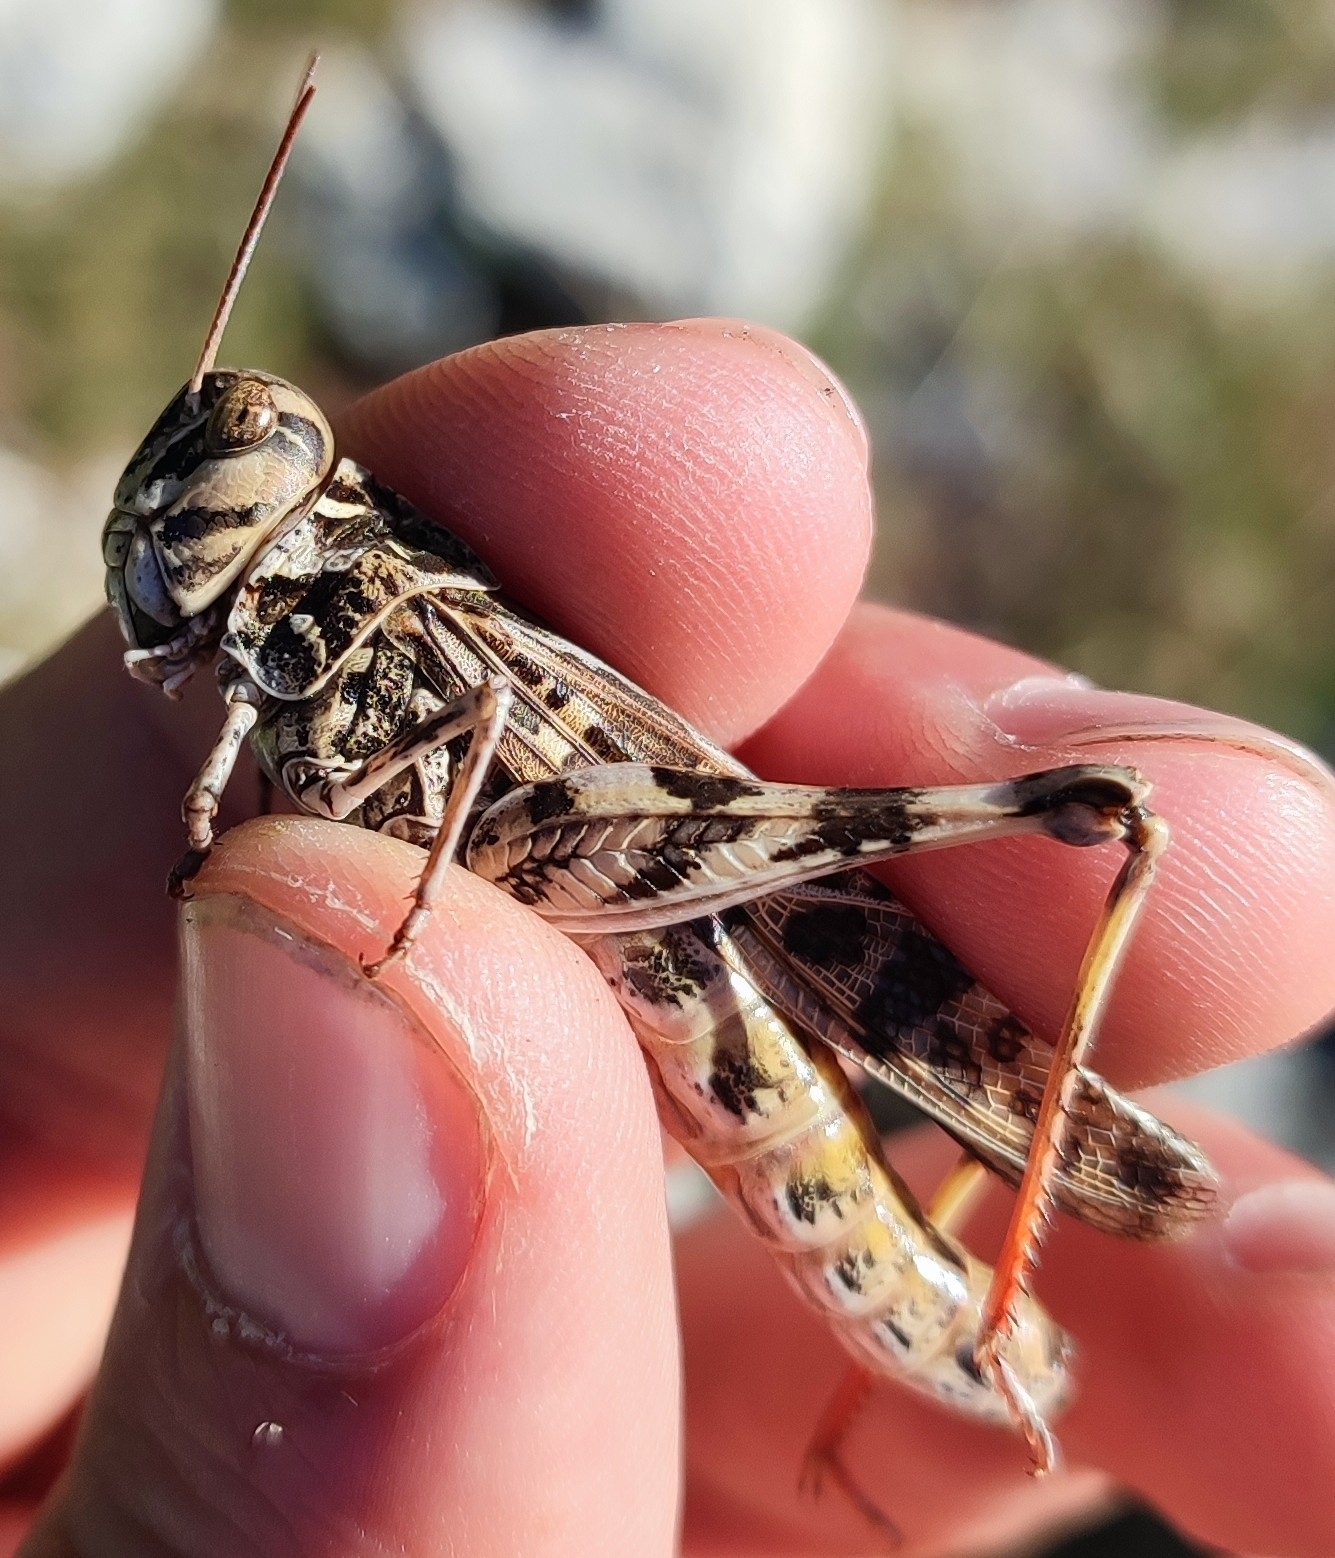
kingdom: Animalia
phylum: Arthropoda
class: Insecta
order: Orthoptera
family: Acrididae
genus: Oedaleus
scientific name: Oedaleus decorus
